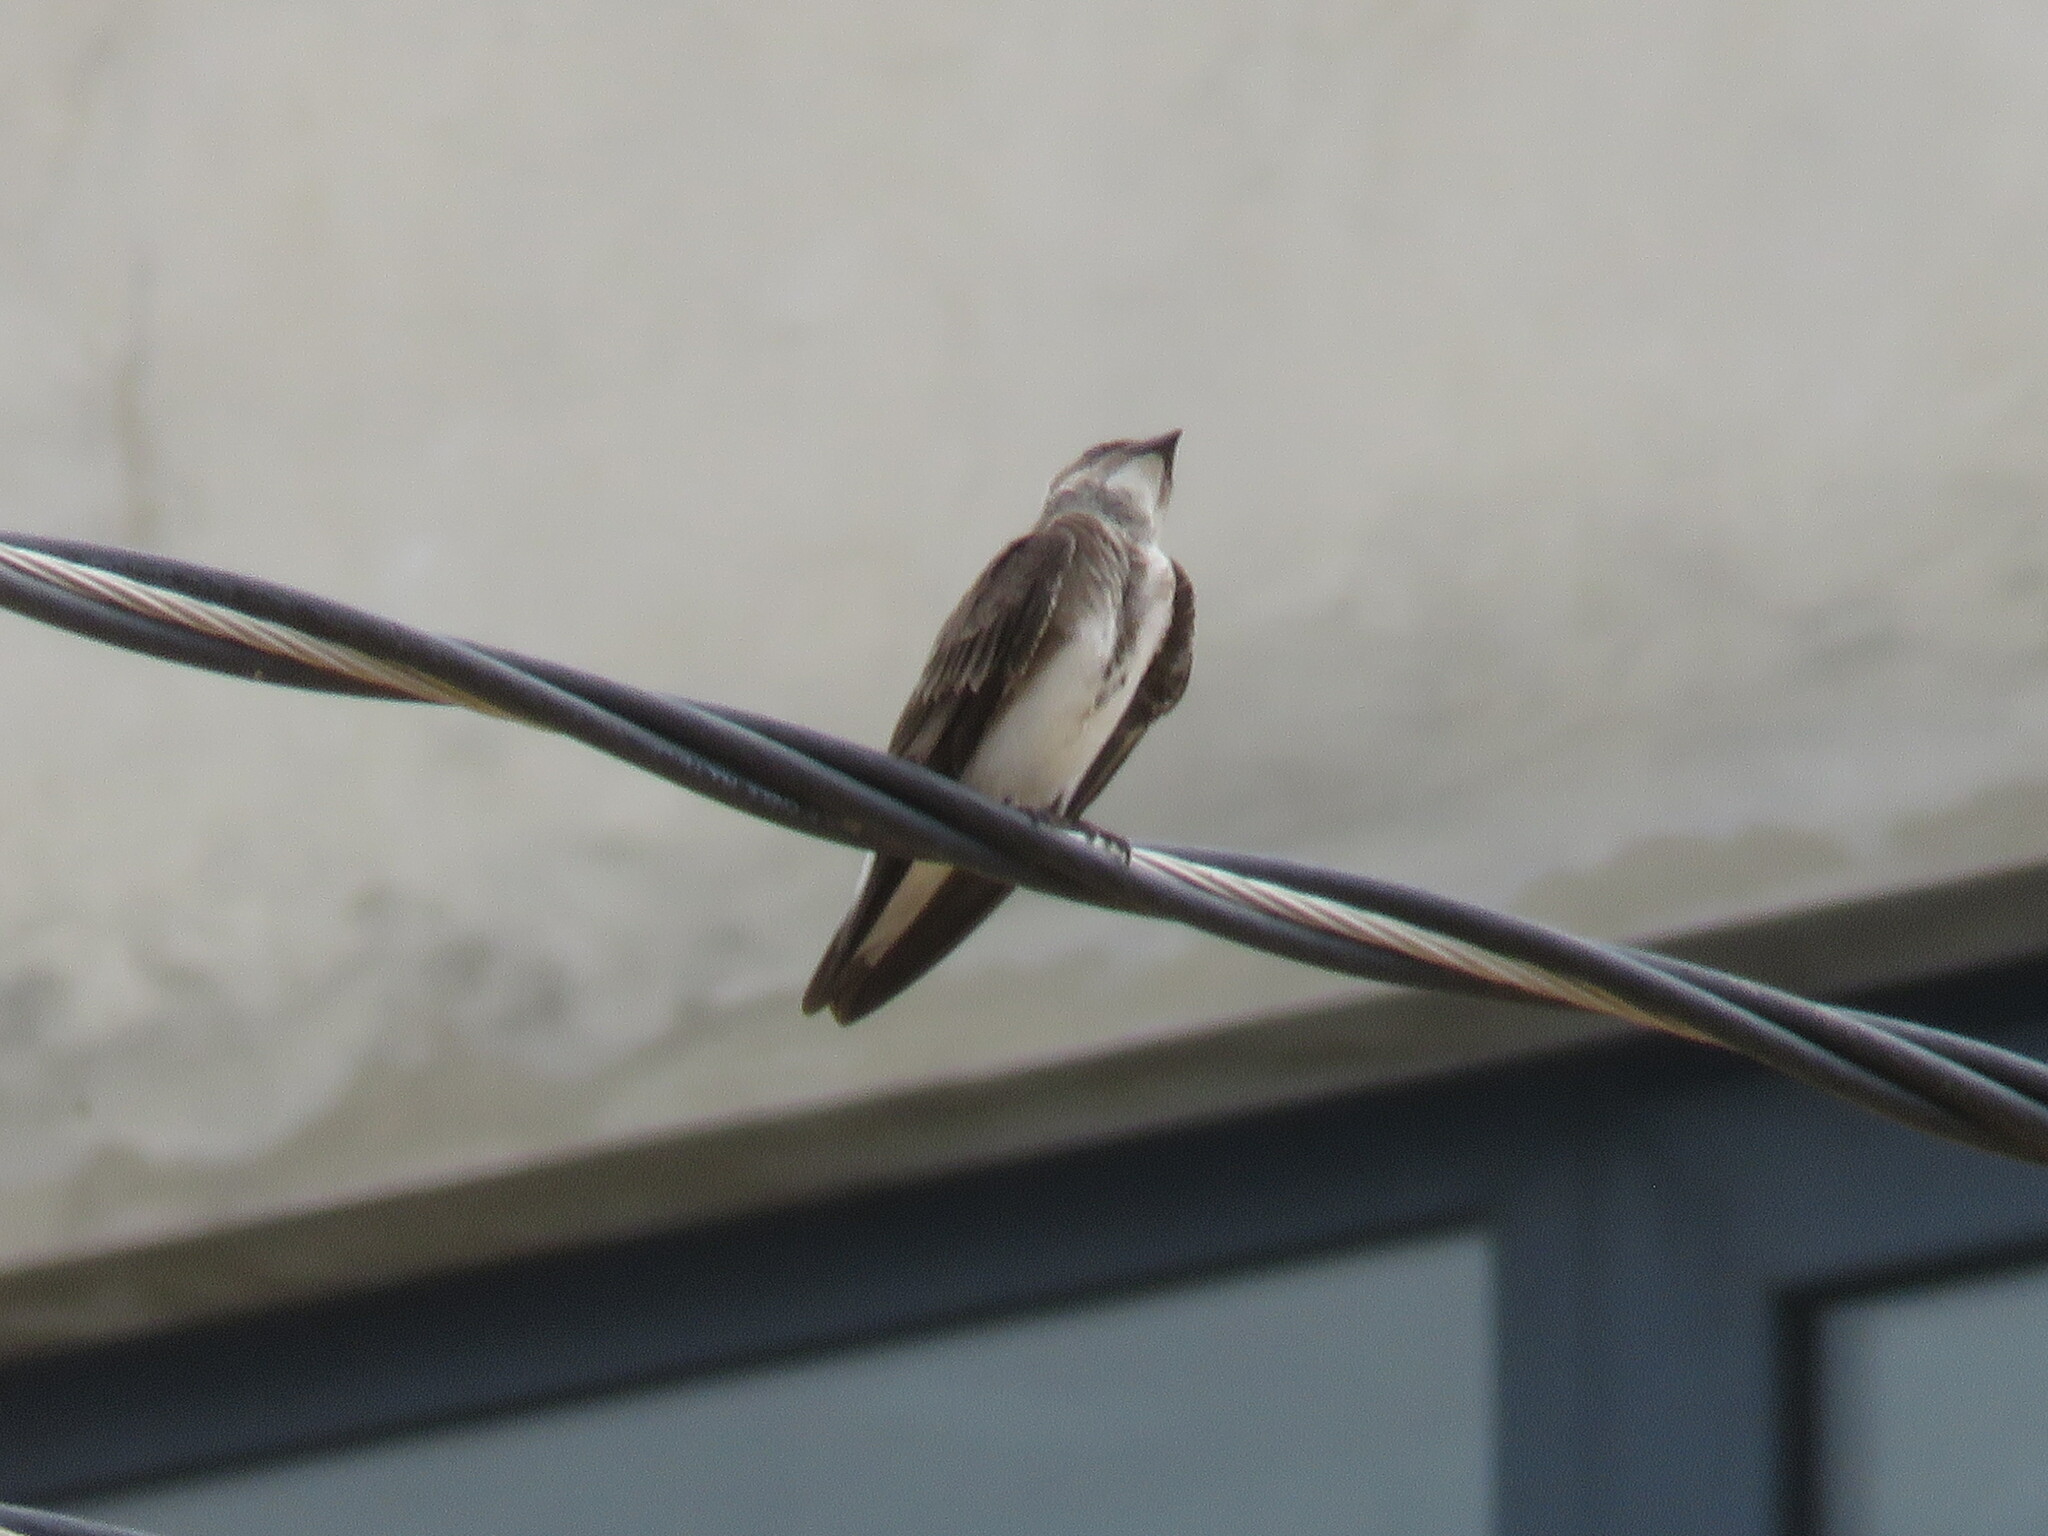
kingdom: Animalia
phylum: Chordata
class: Aves
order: Passeriformes
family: Hirundinidae
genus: Progne
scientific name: Progne tapera
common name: Brown-chested martin
